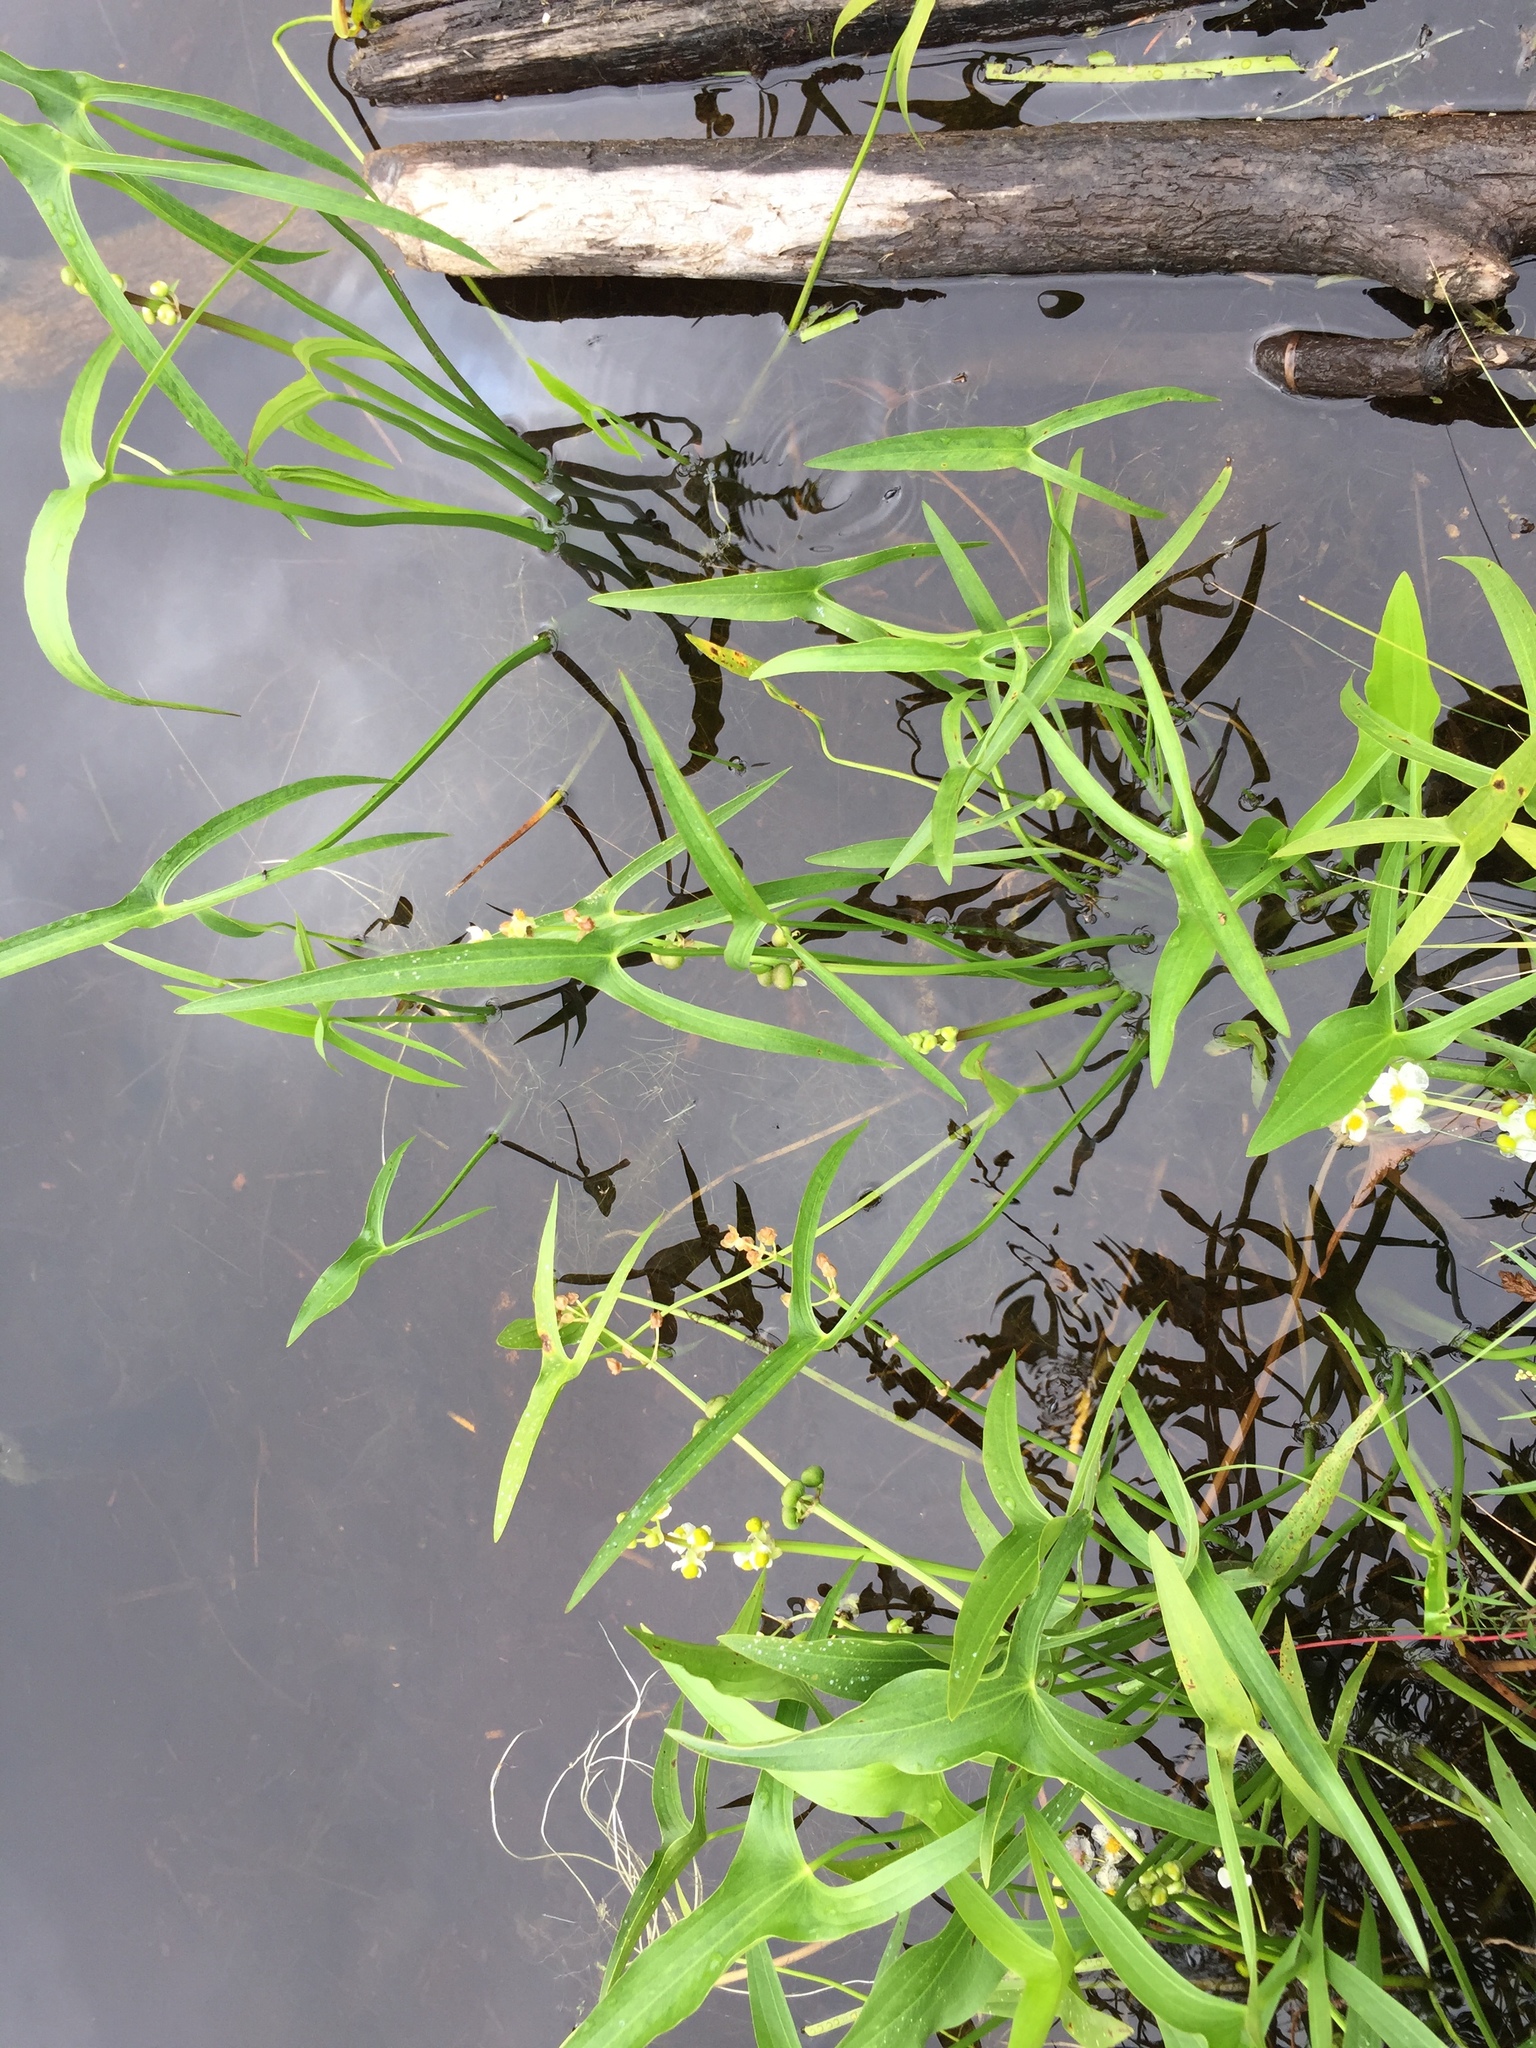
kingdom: Plantae
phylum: Tracheophyta
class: Liliopsida
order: Alismatales
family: Alismataceae
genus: Sagittaria
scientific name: Sagittaria latifolia
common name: Duck-potato
